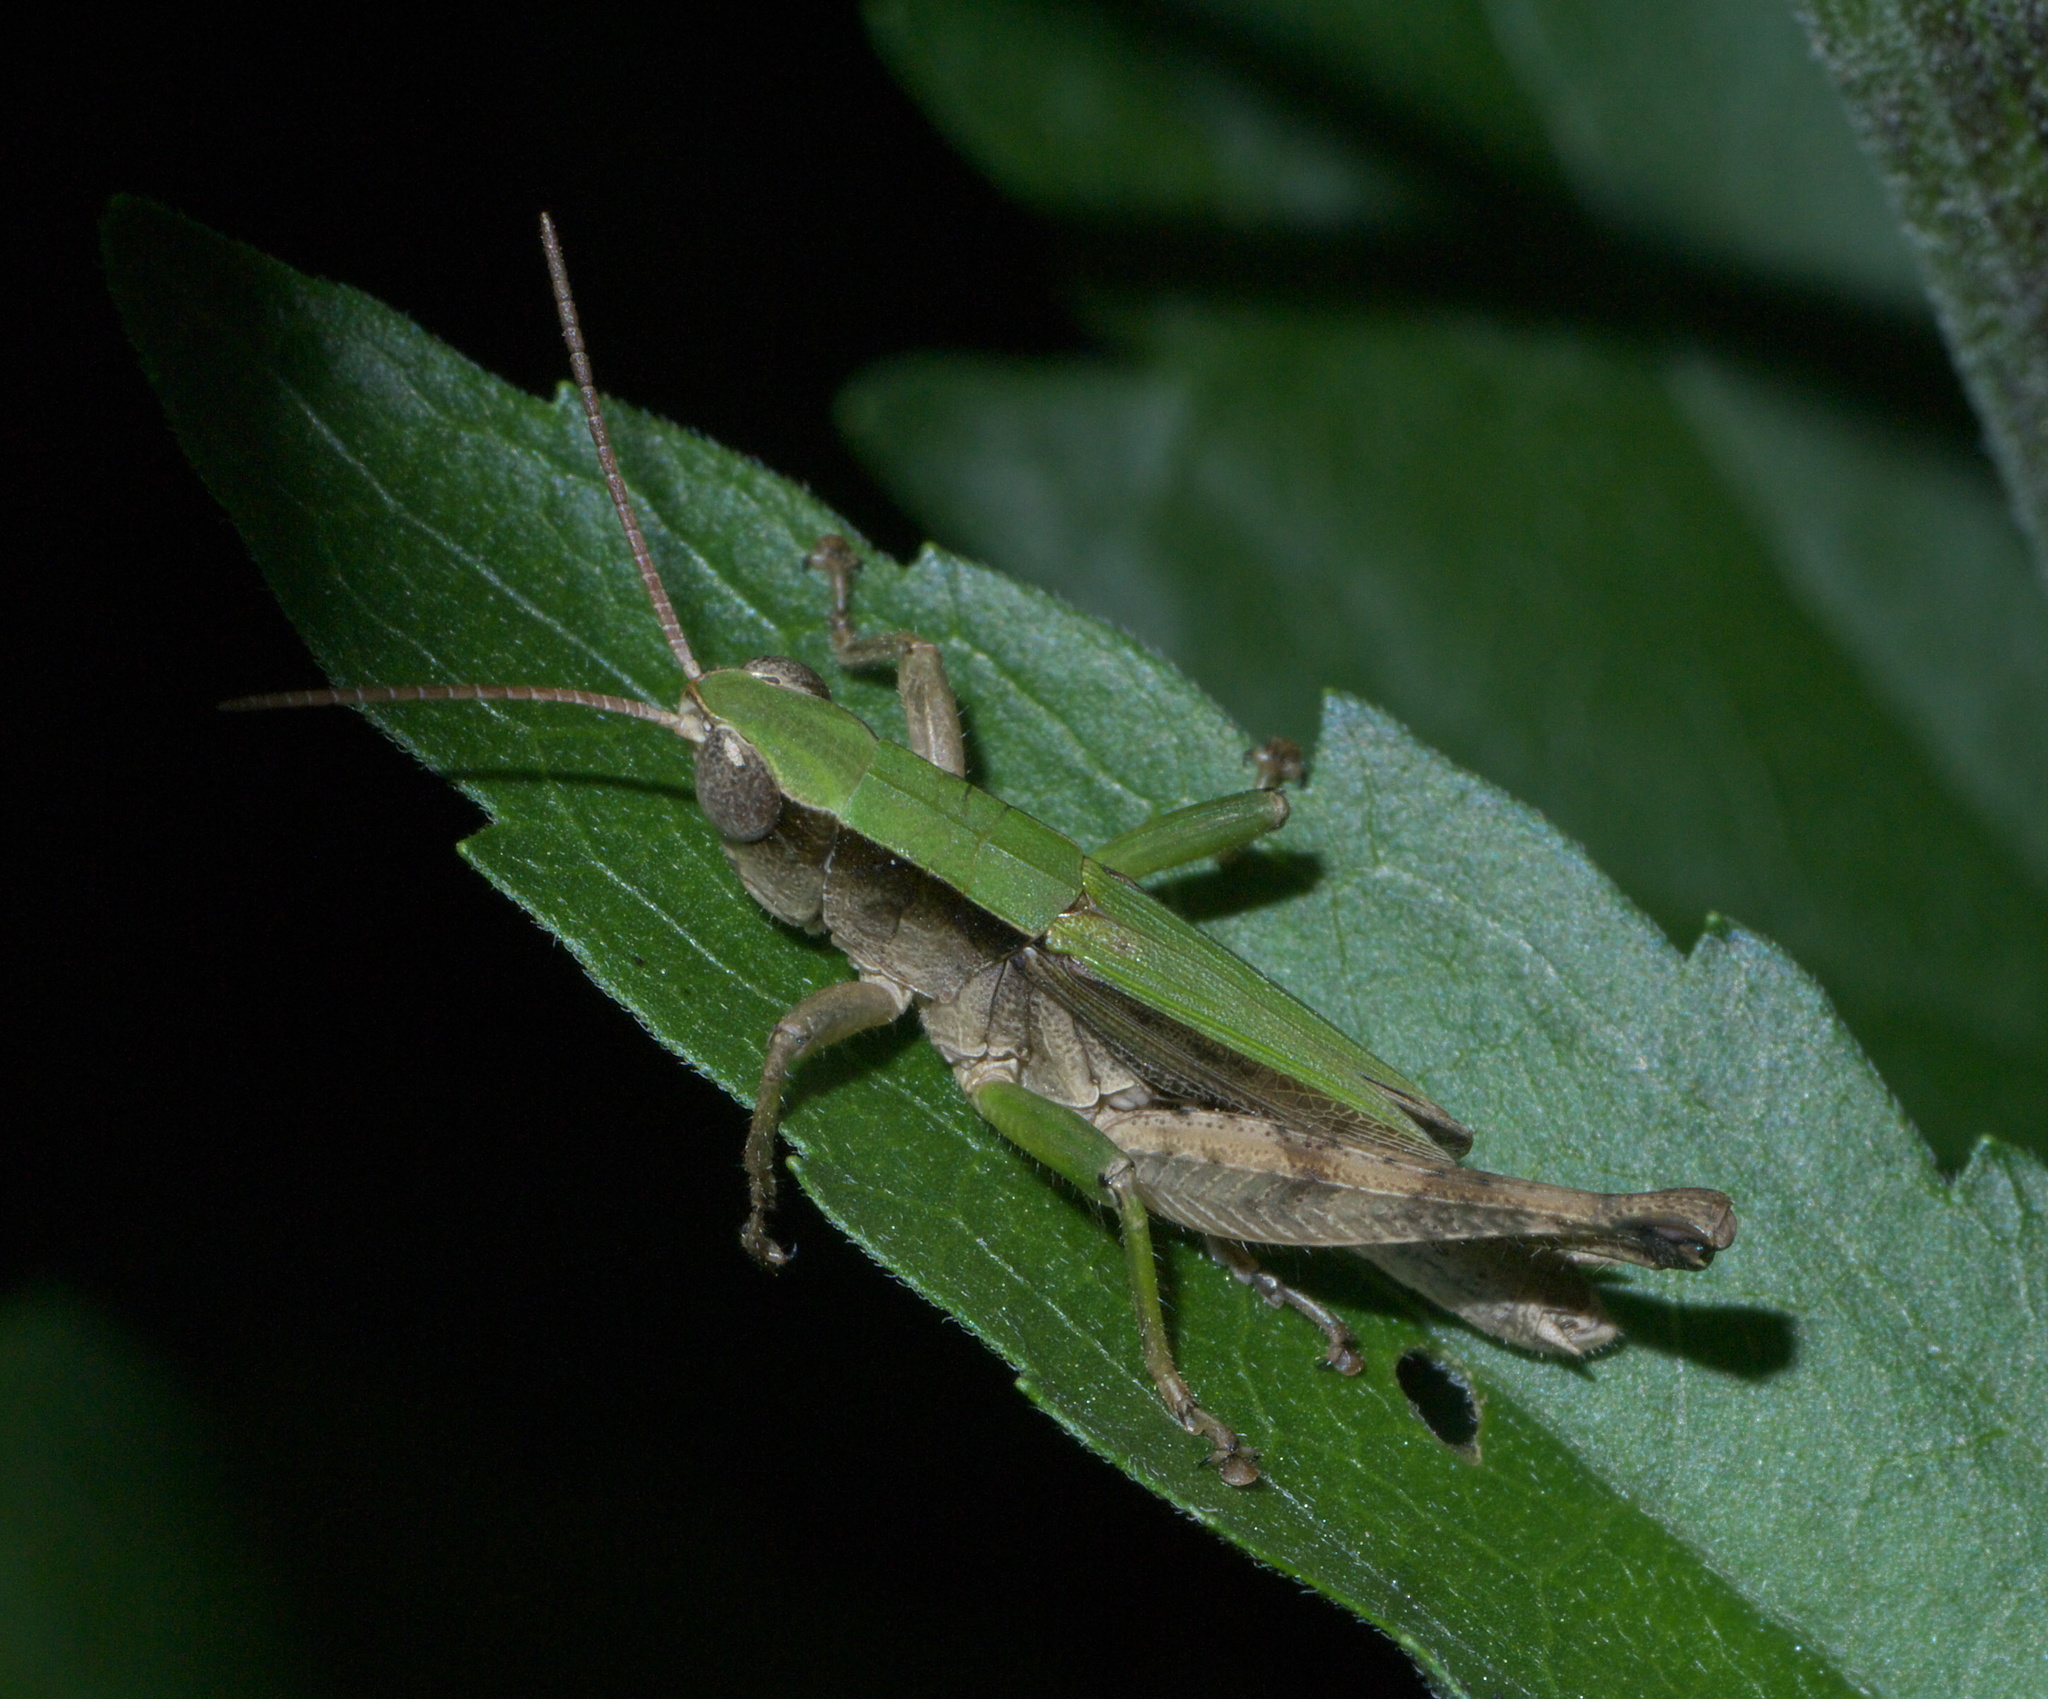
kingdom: Animalia
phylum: Arthropoda
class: Insecta
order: Orthoptera
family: Acrididae
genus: Dichromorpha
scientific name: Dichromorpha viridis
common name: Short-winged green grasshopper
